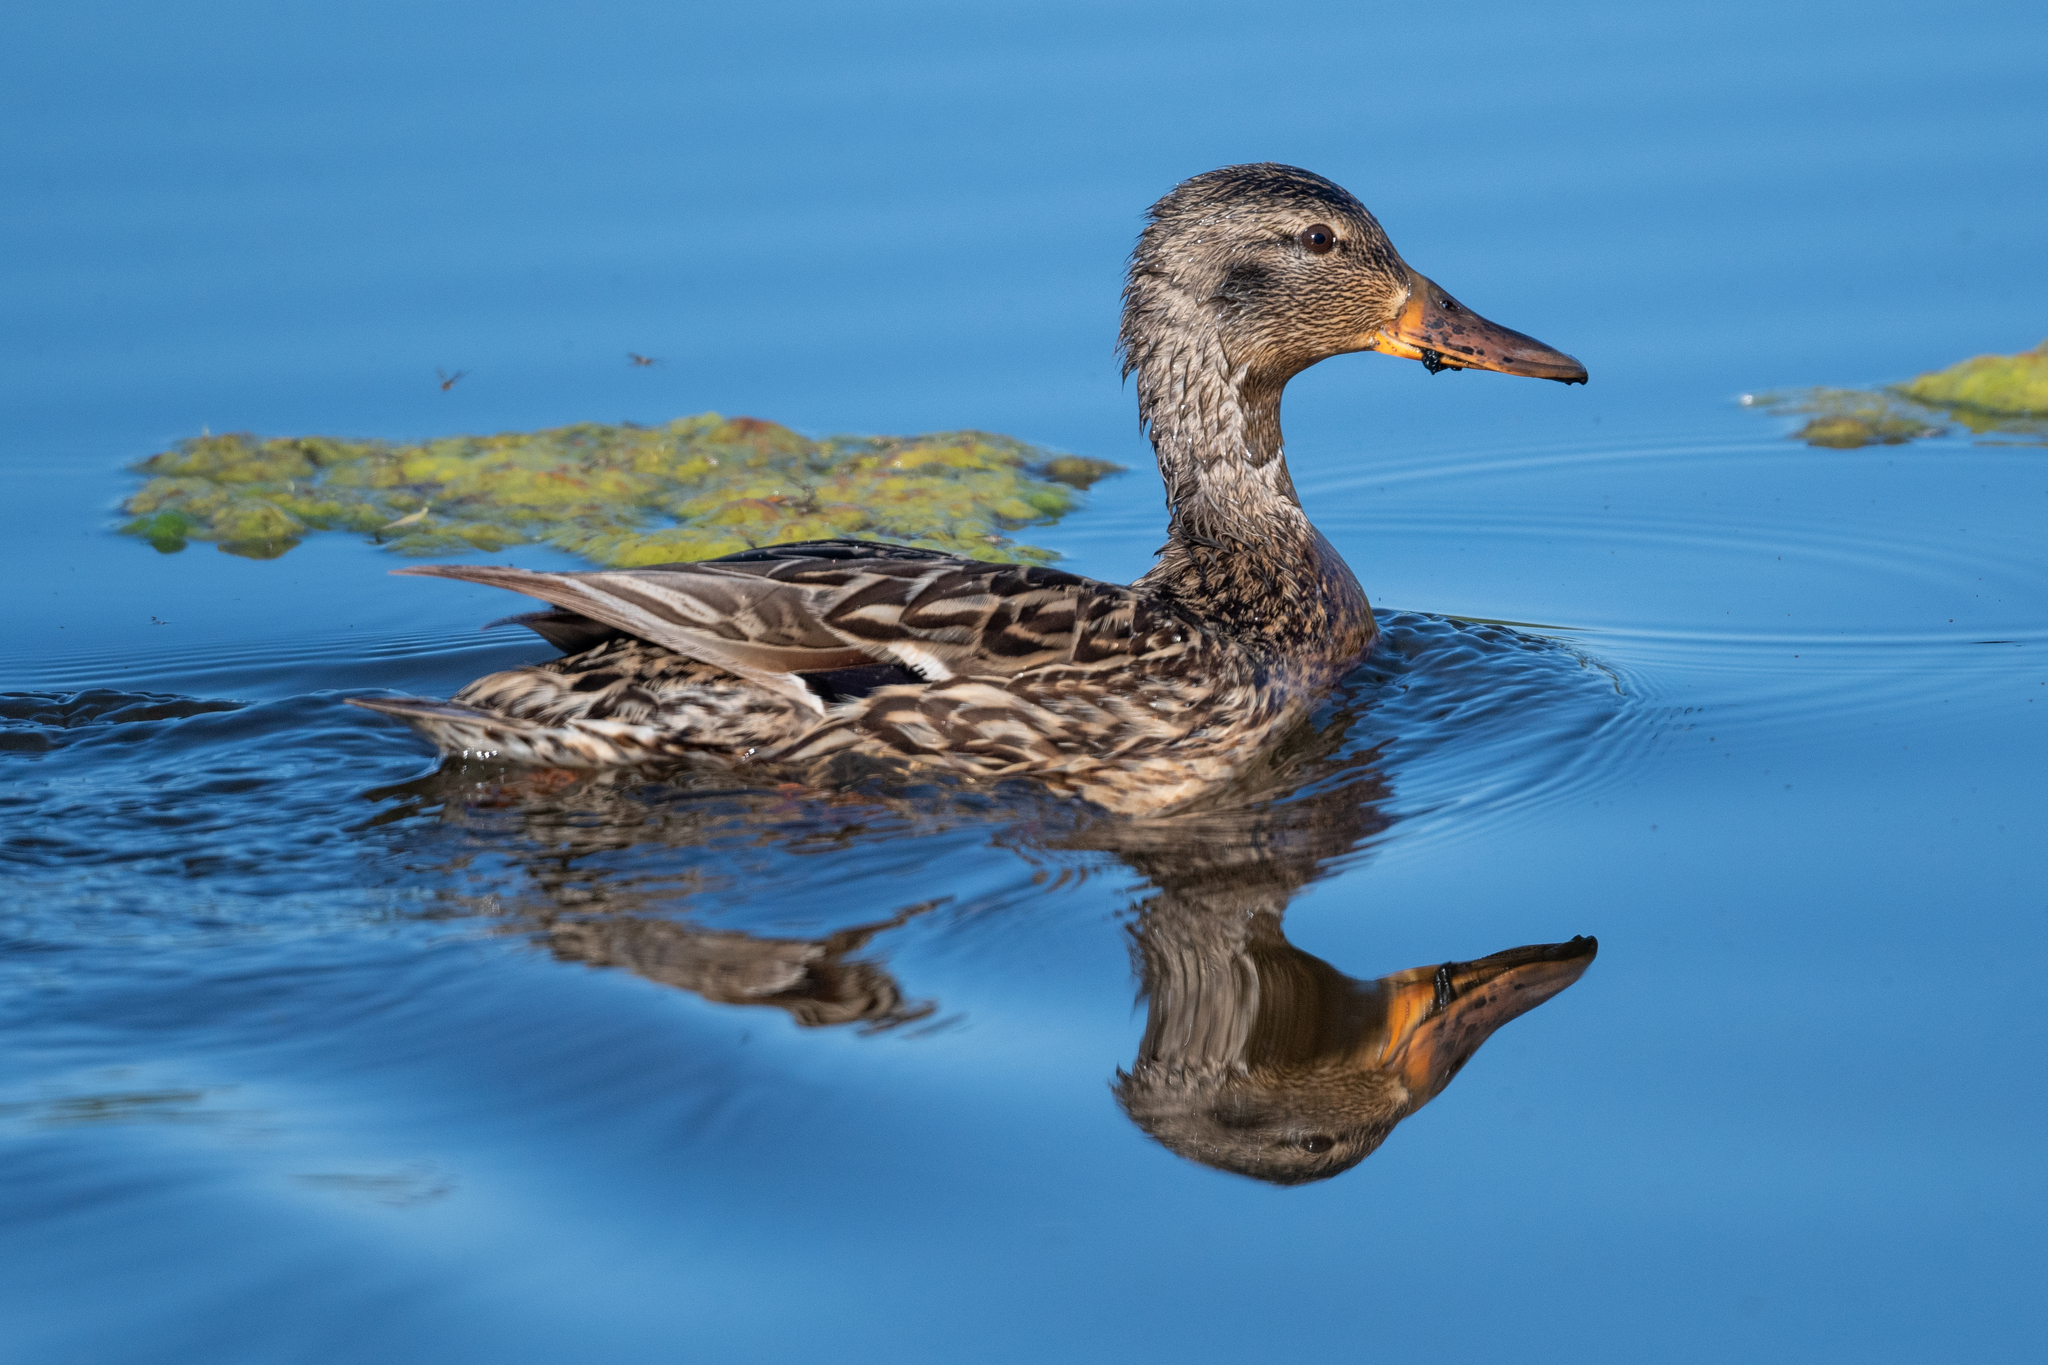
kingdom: Animalia
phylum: Chordata
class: Aves
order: Anseriformes
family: Anatidae
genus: Anas
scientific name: Anas platyrhynchos
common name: Mallard
